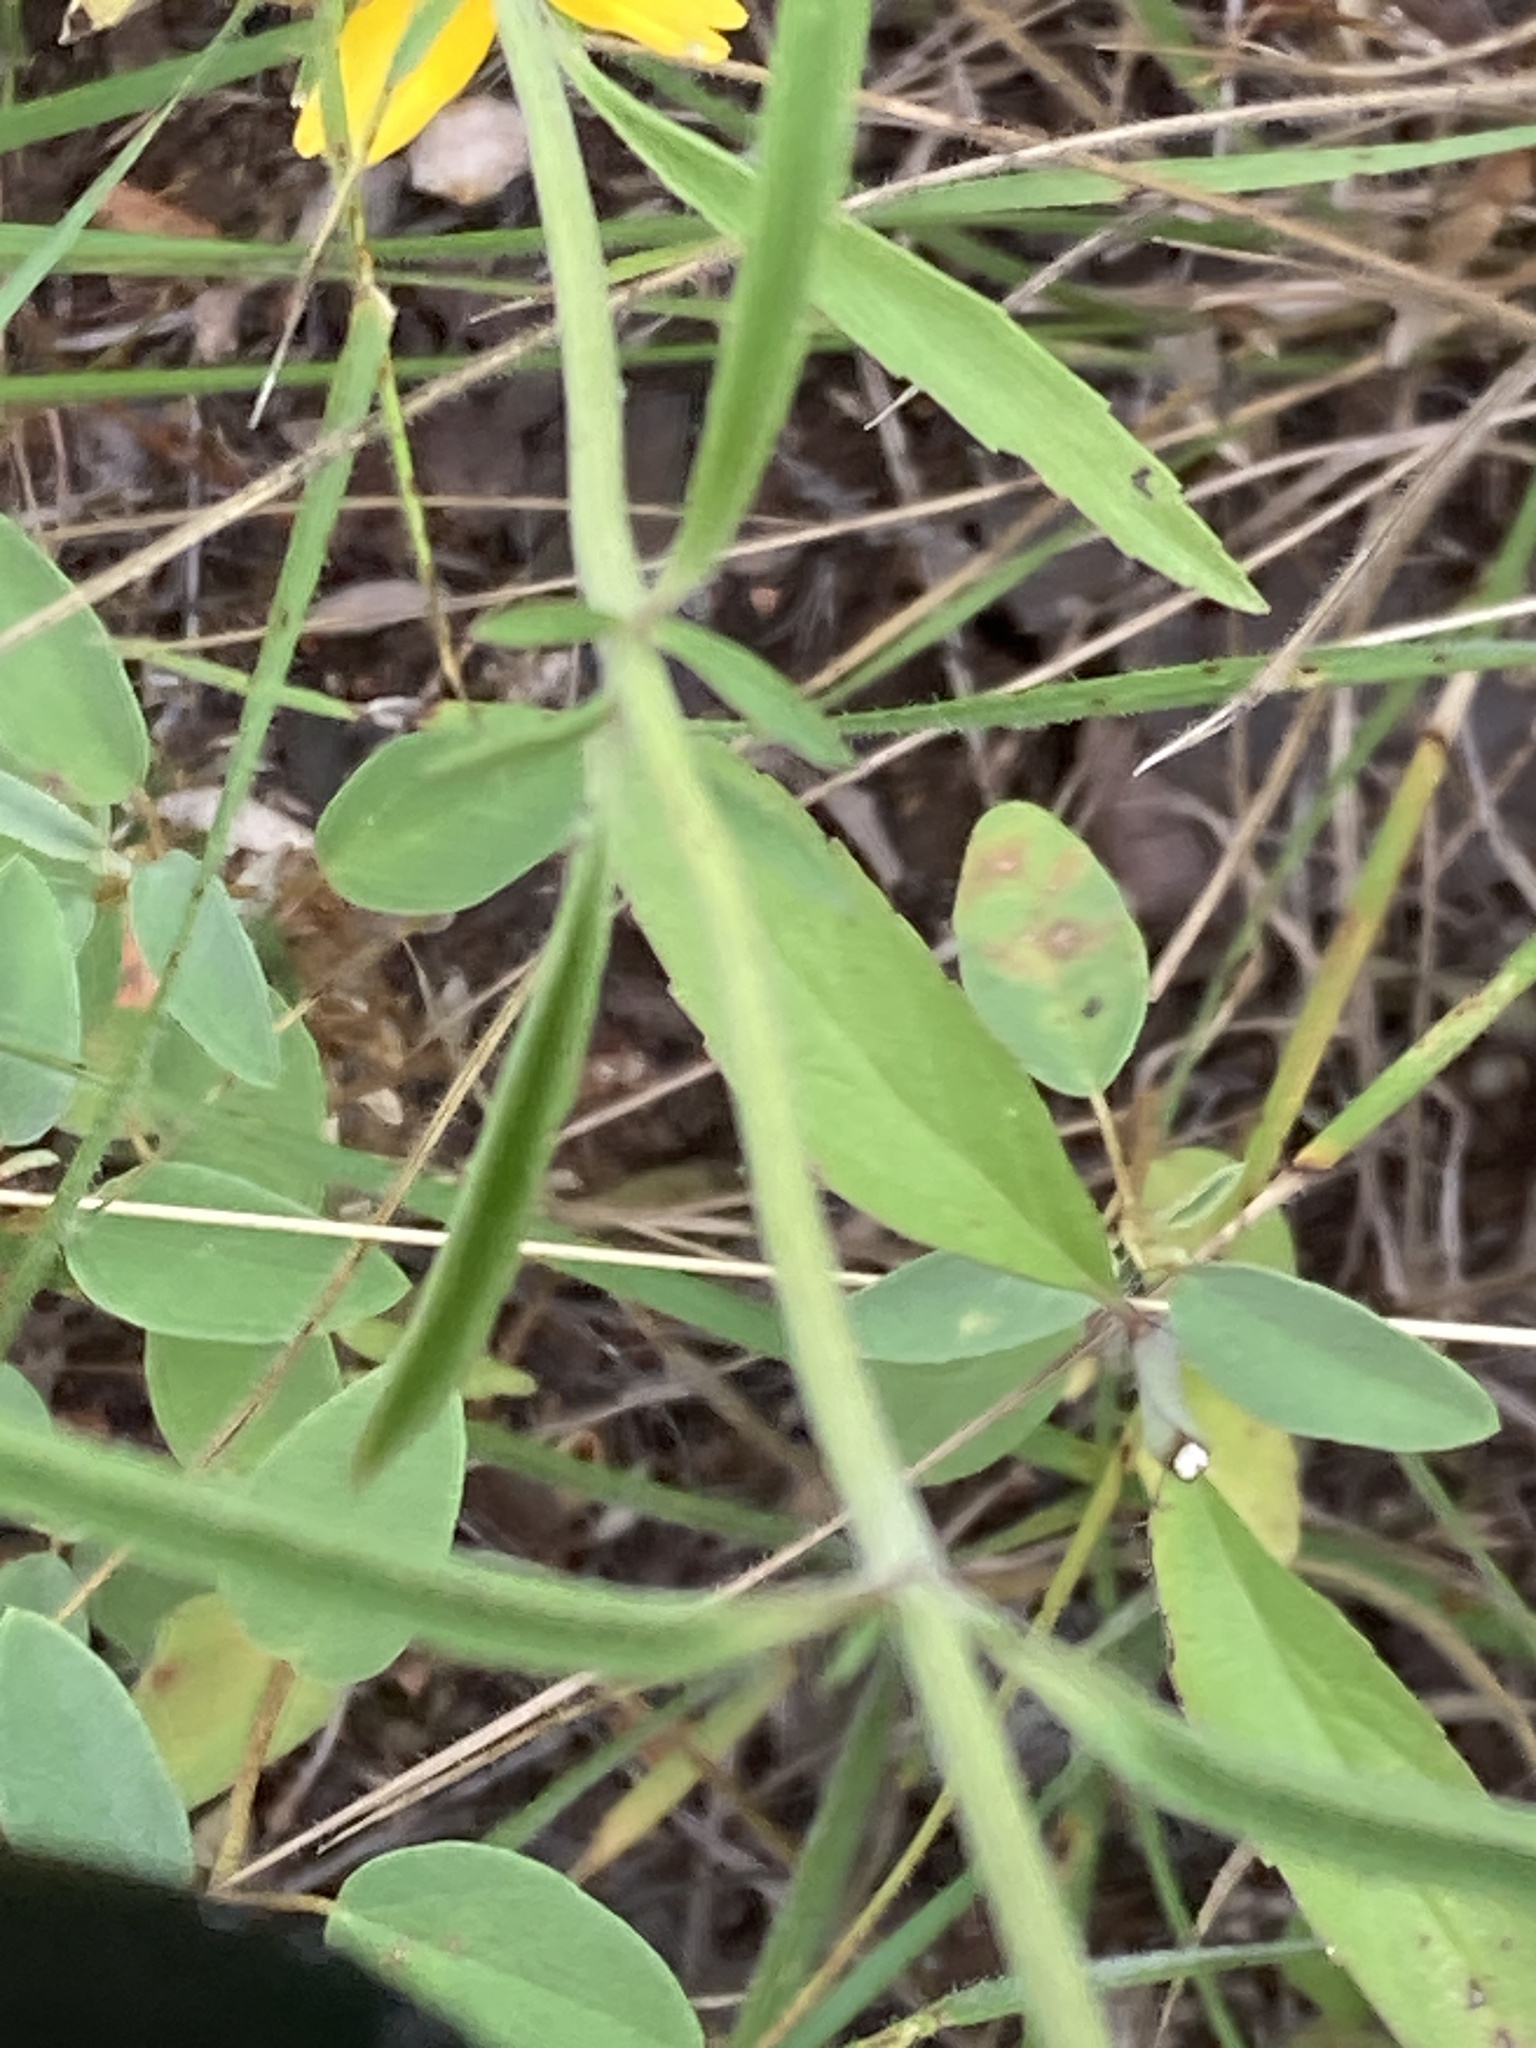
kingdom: Plantae
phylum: Tracheophyta
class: Magnoliopsida
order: Lamiales
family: Lamiaceae
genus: Monarda
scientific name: Monarda citriodora
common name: Lemon beebalm
